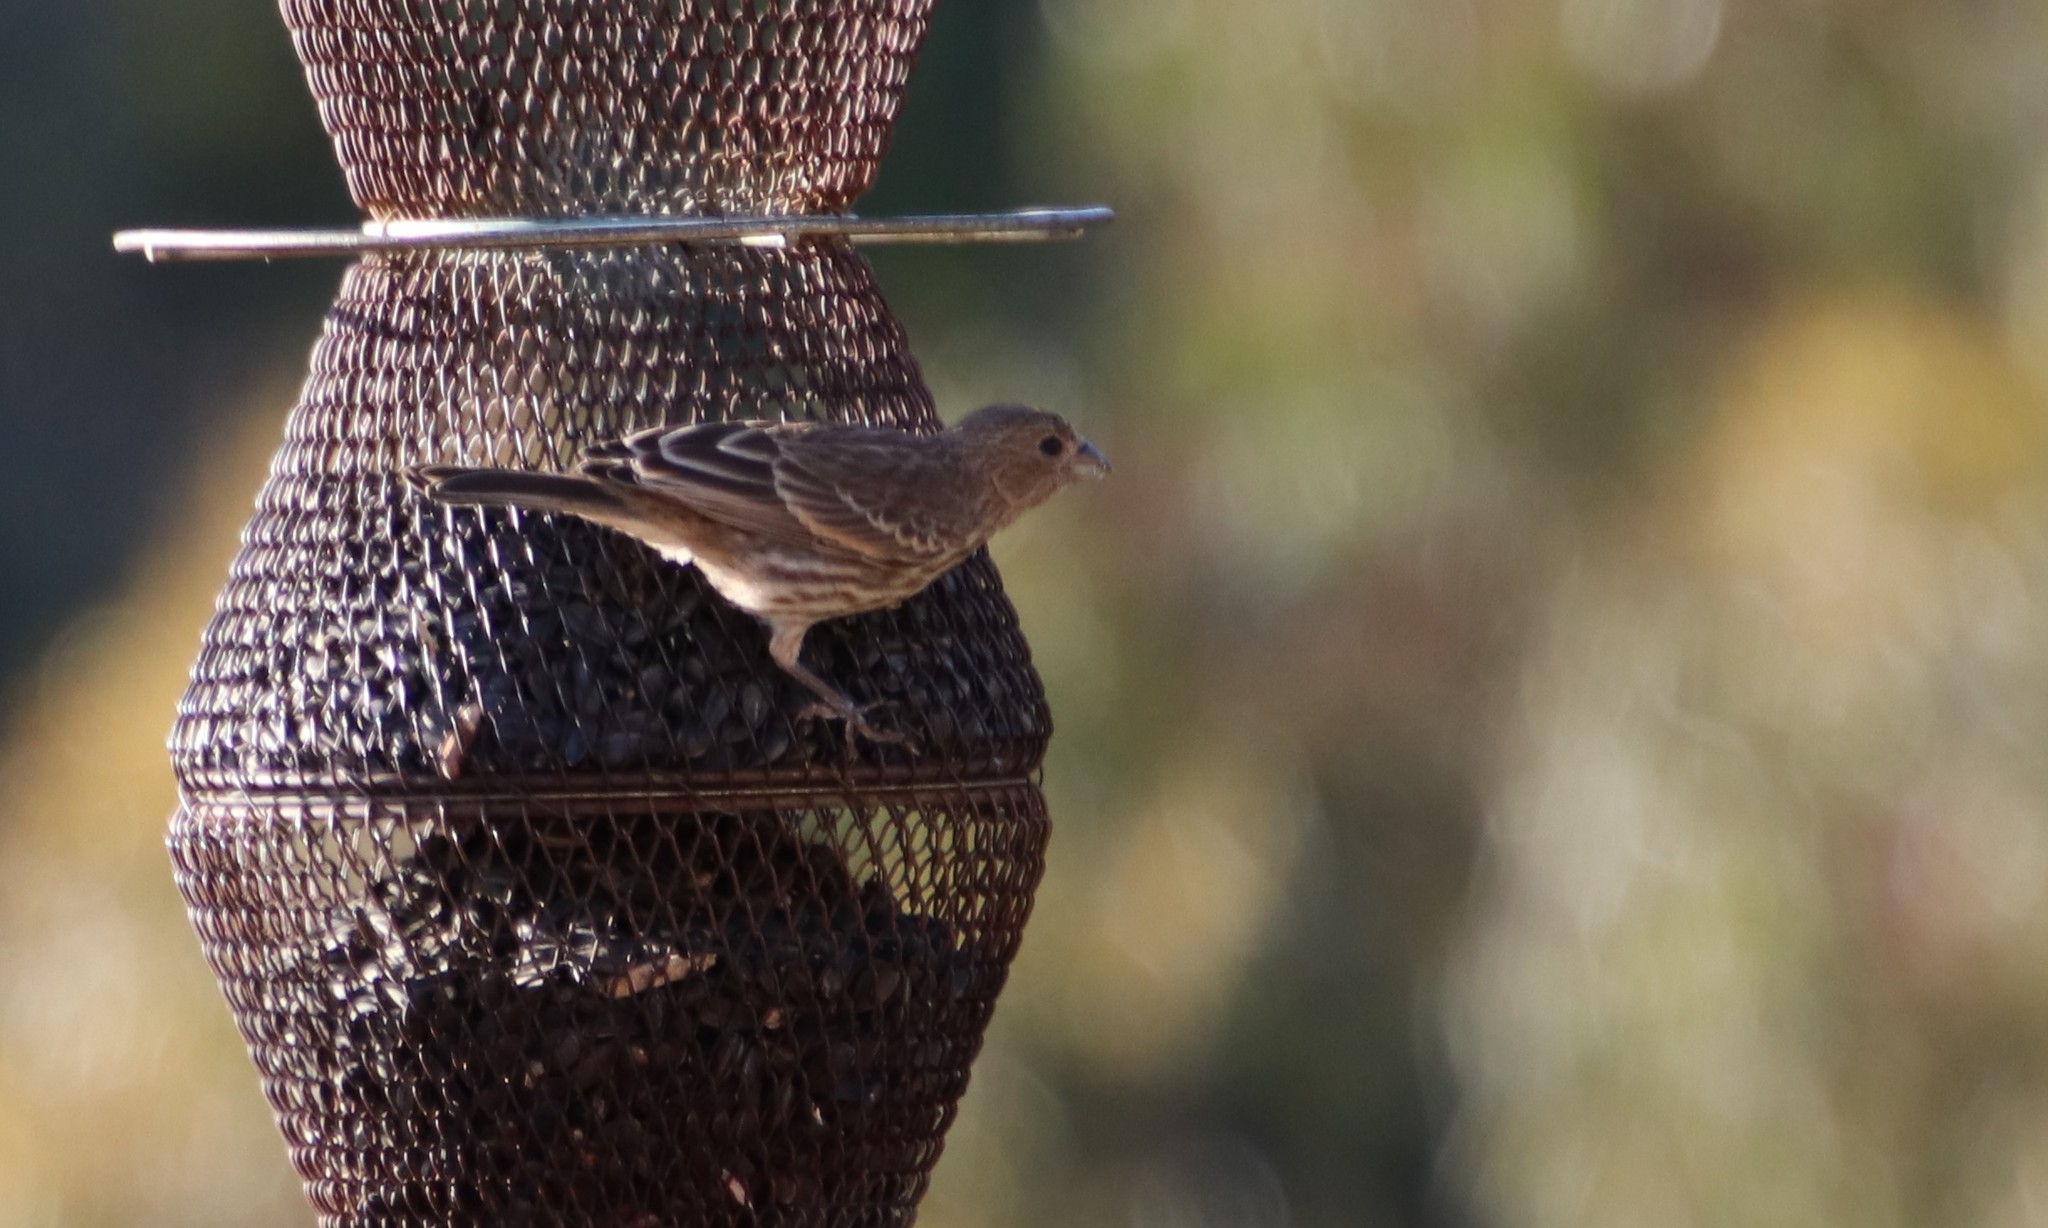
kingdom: Animalia
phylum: Chordata
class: Aves
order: Passeriformes
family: Fringillidae
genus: Haemorhous
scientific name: Haemorhous mexicanus
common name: House finch
